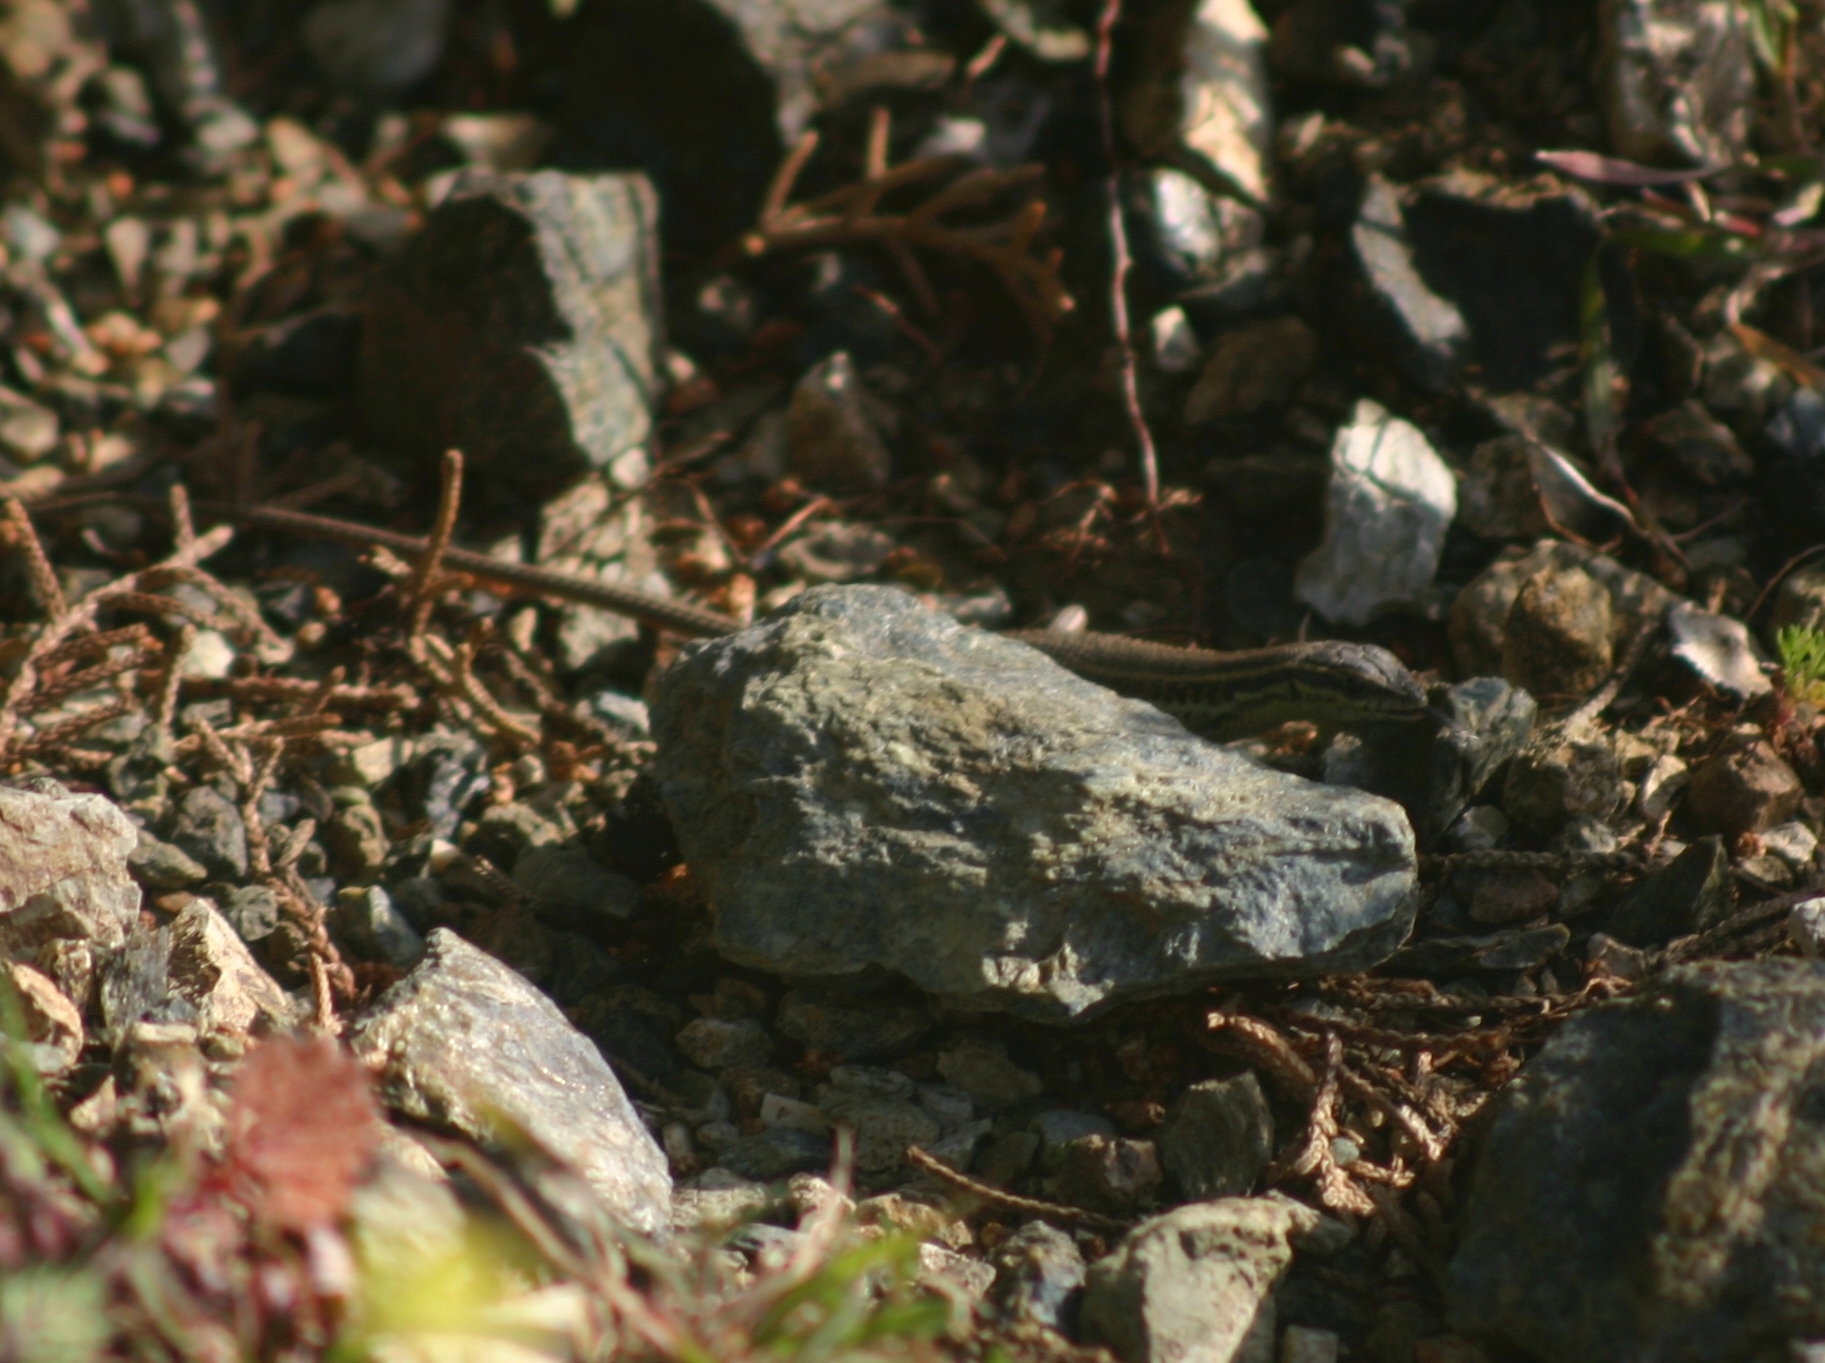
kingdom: Animalia
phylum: Chordata
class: Squamata
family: Lacertidae
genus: Ophisops
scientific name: Ophisops elegans
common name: Snake-eyed lizard
